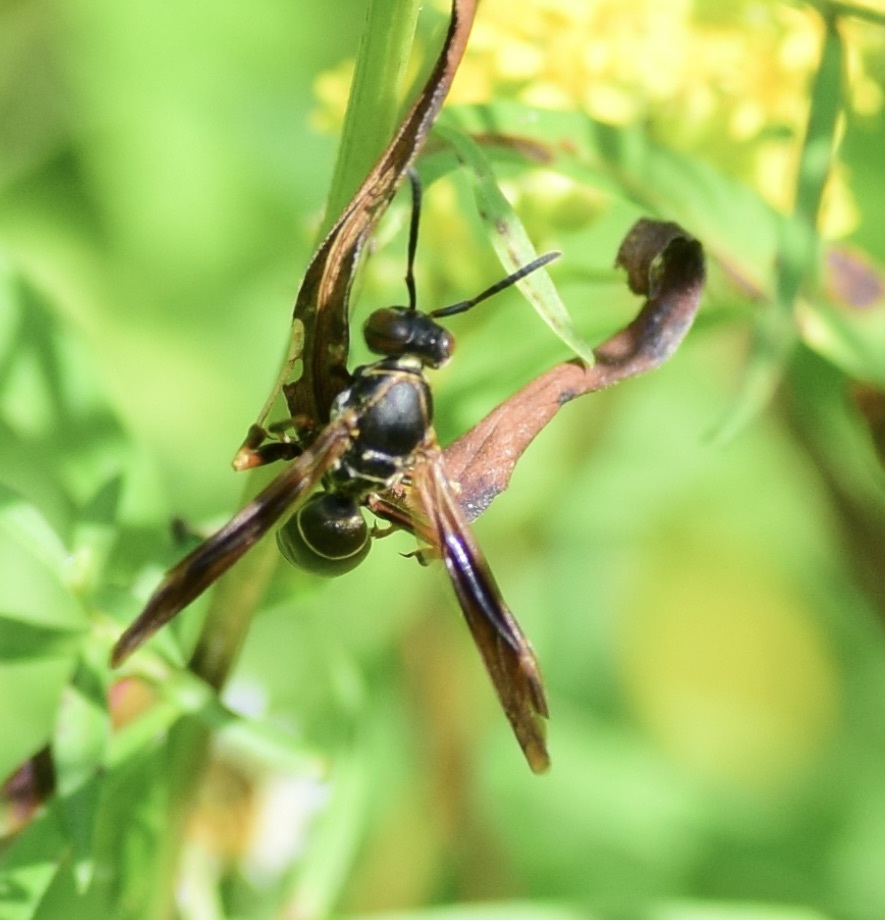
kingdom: Animalia
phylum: Arthropoda
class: Insecta
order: Hymenoptera
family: Eumenidae
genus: Polistes
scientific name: Polistes fuscatus
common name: Dark paper wasp
